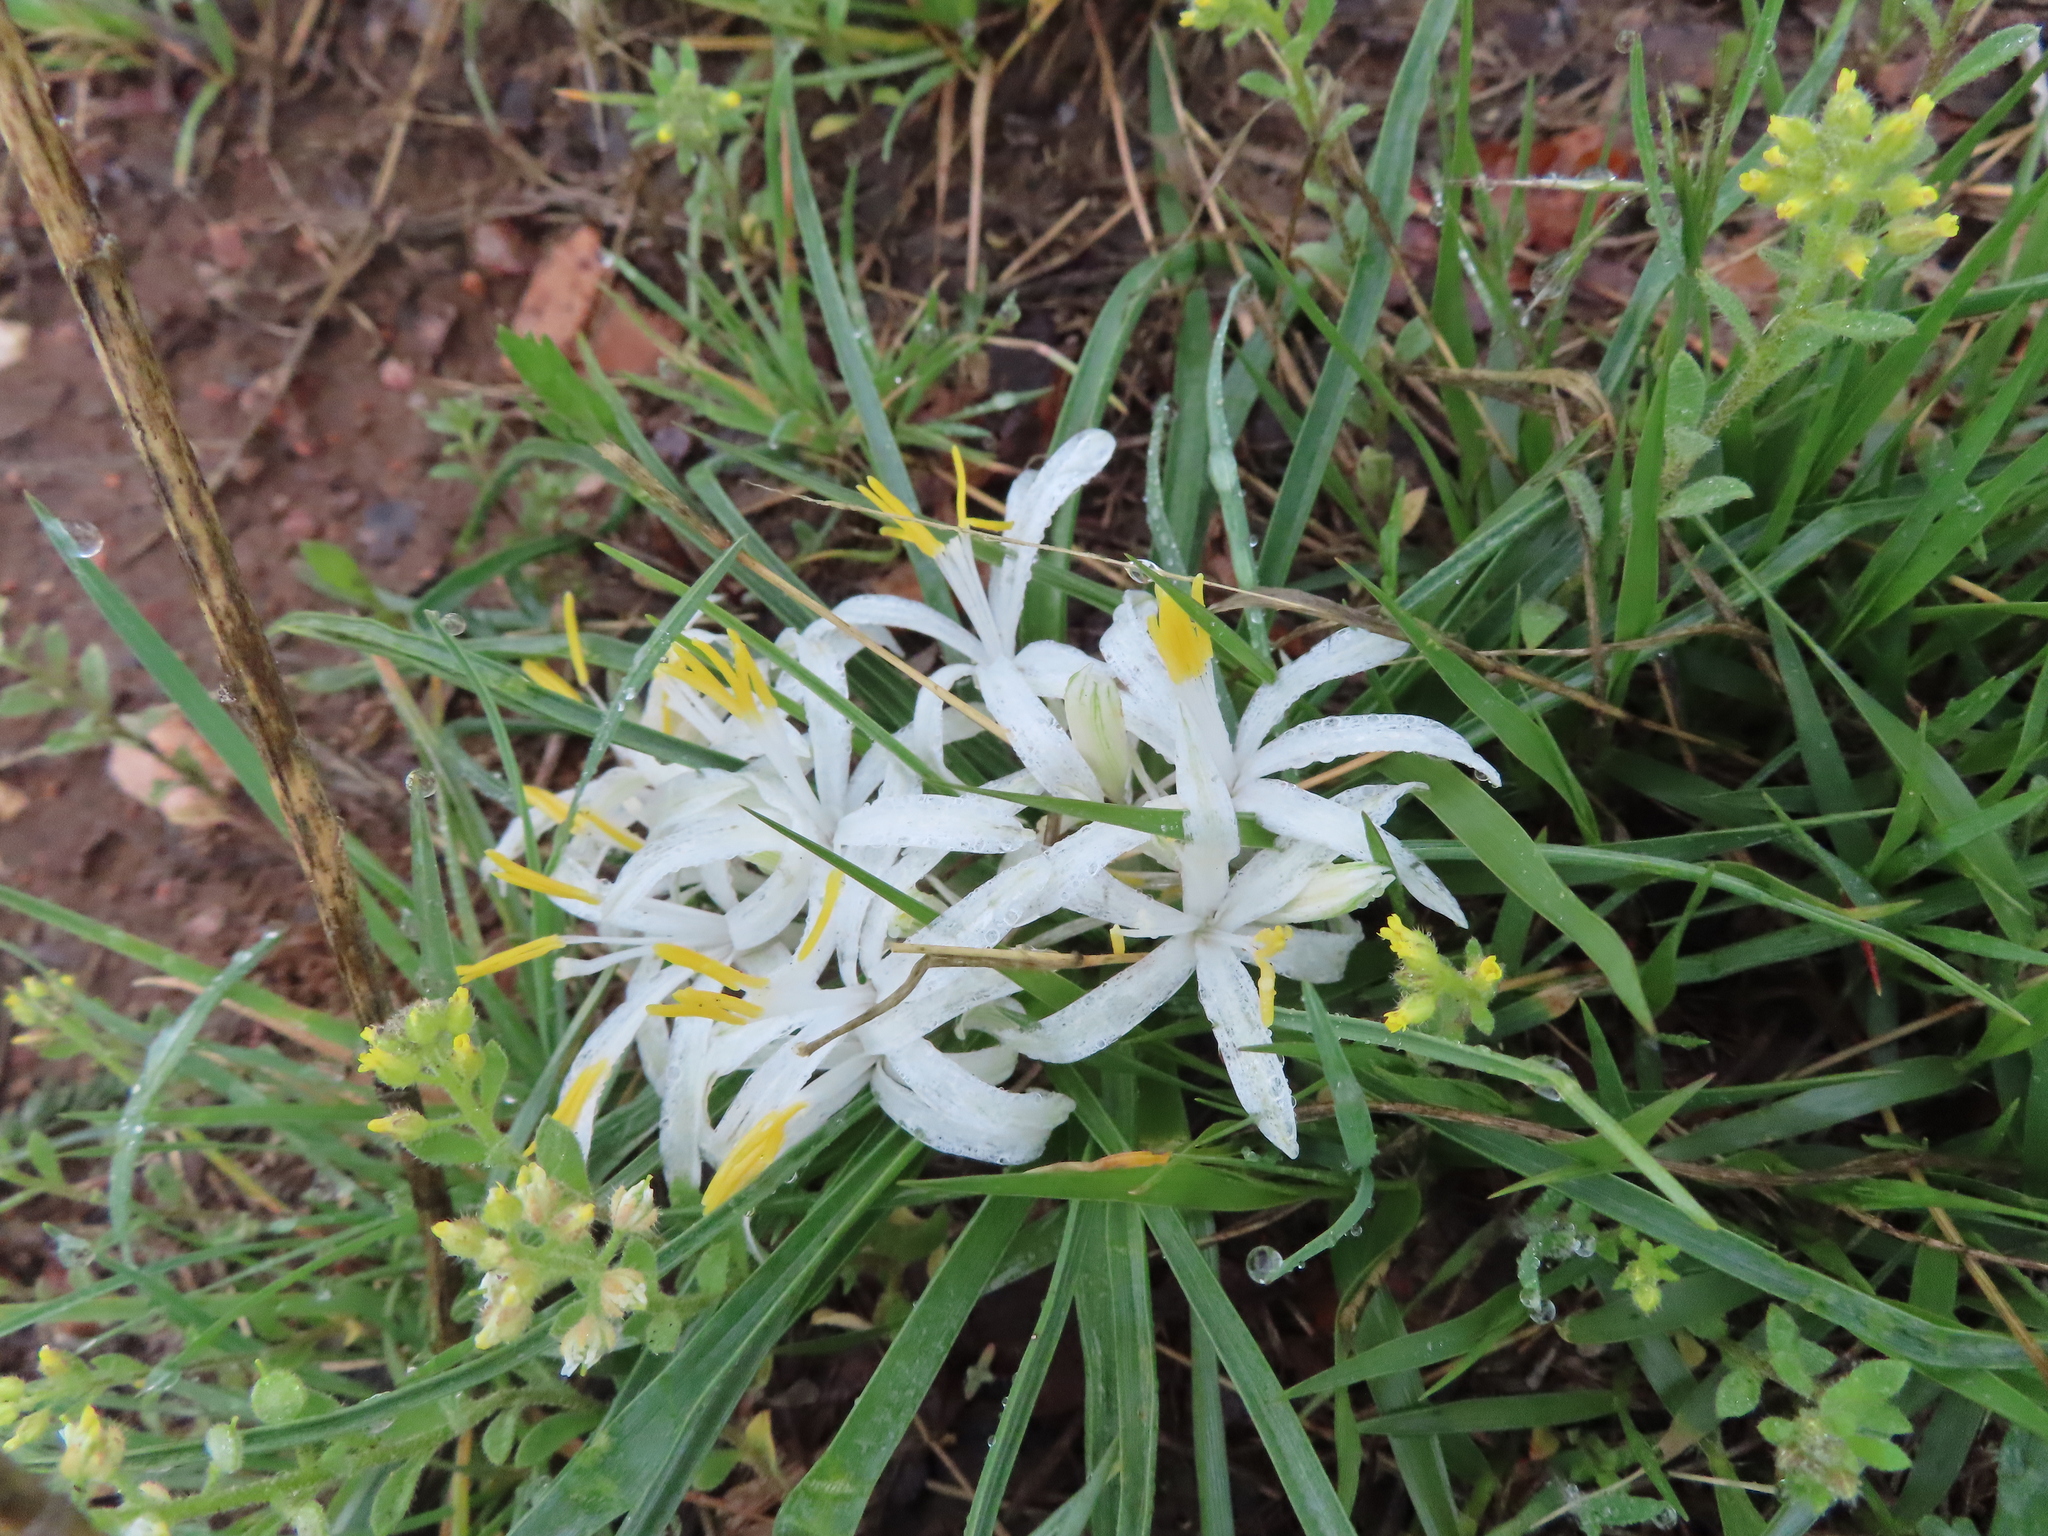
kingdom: Plantae
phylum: Tracheophyta
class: Liliopsida
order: Asparagales
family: Asparagaceae
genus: Leucocrinum
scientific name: Leucocrinum montanum
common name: Mountain-lily
